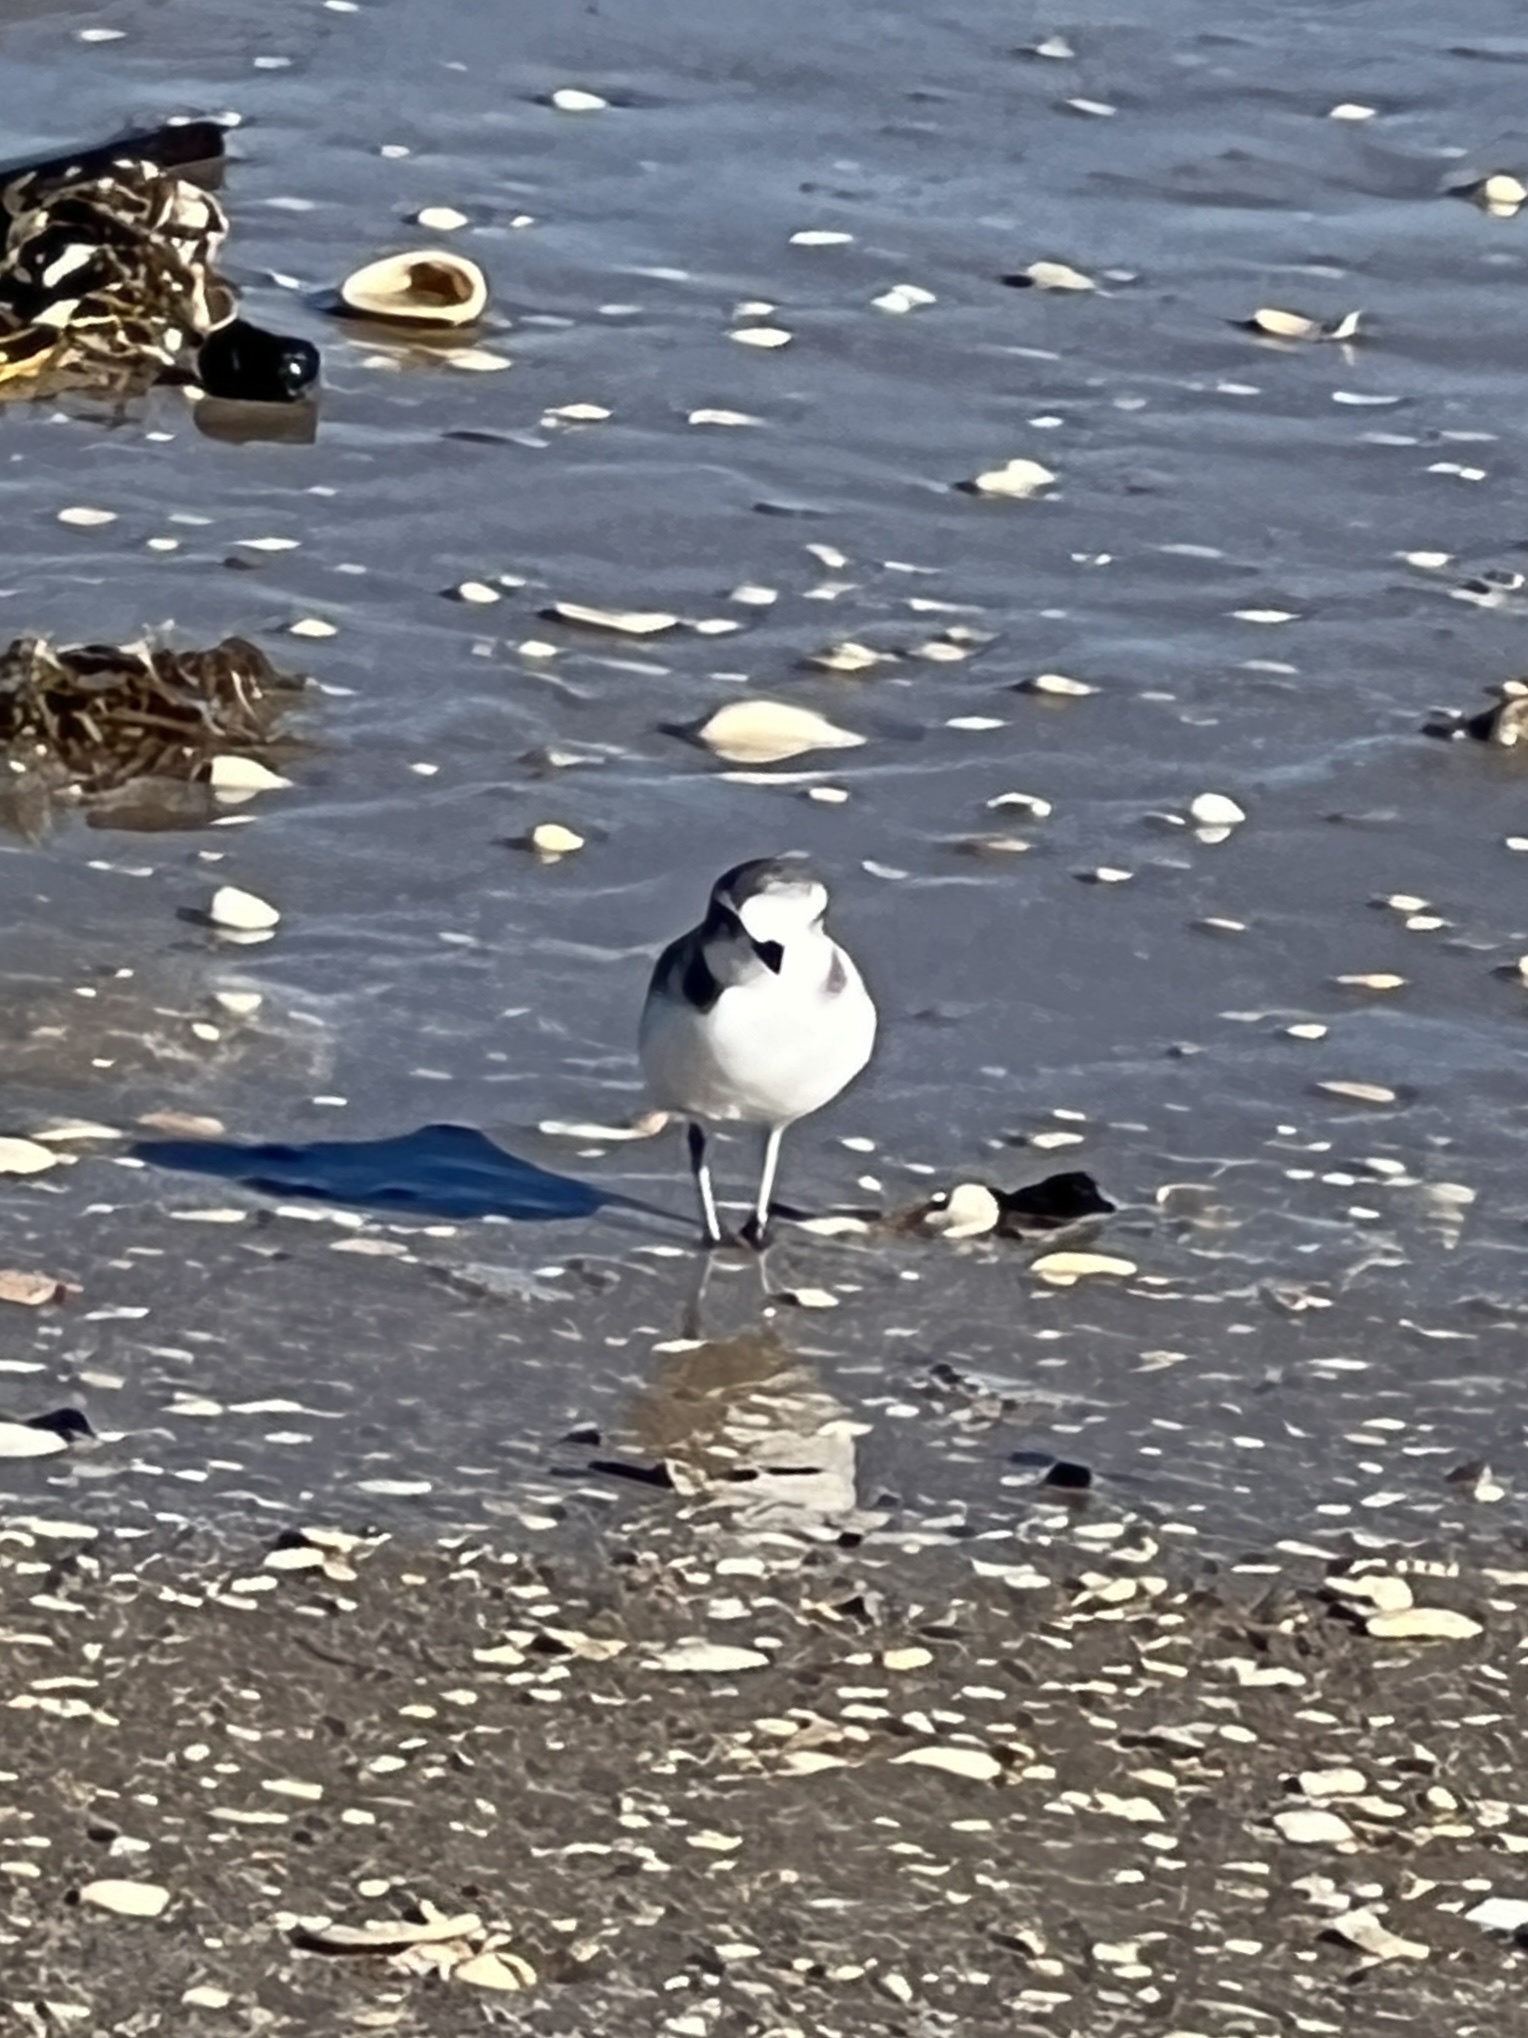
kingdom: Animalia
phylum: Chordata
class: Aves
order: Charadriiformes
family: Charadriidae
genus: Anarhynchus
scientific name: Anarhynchus
